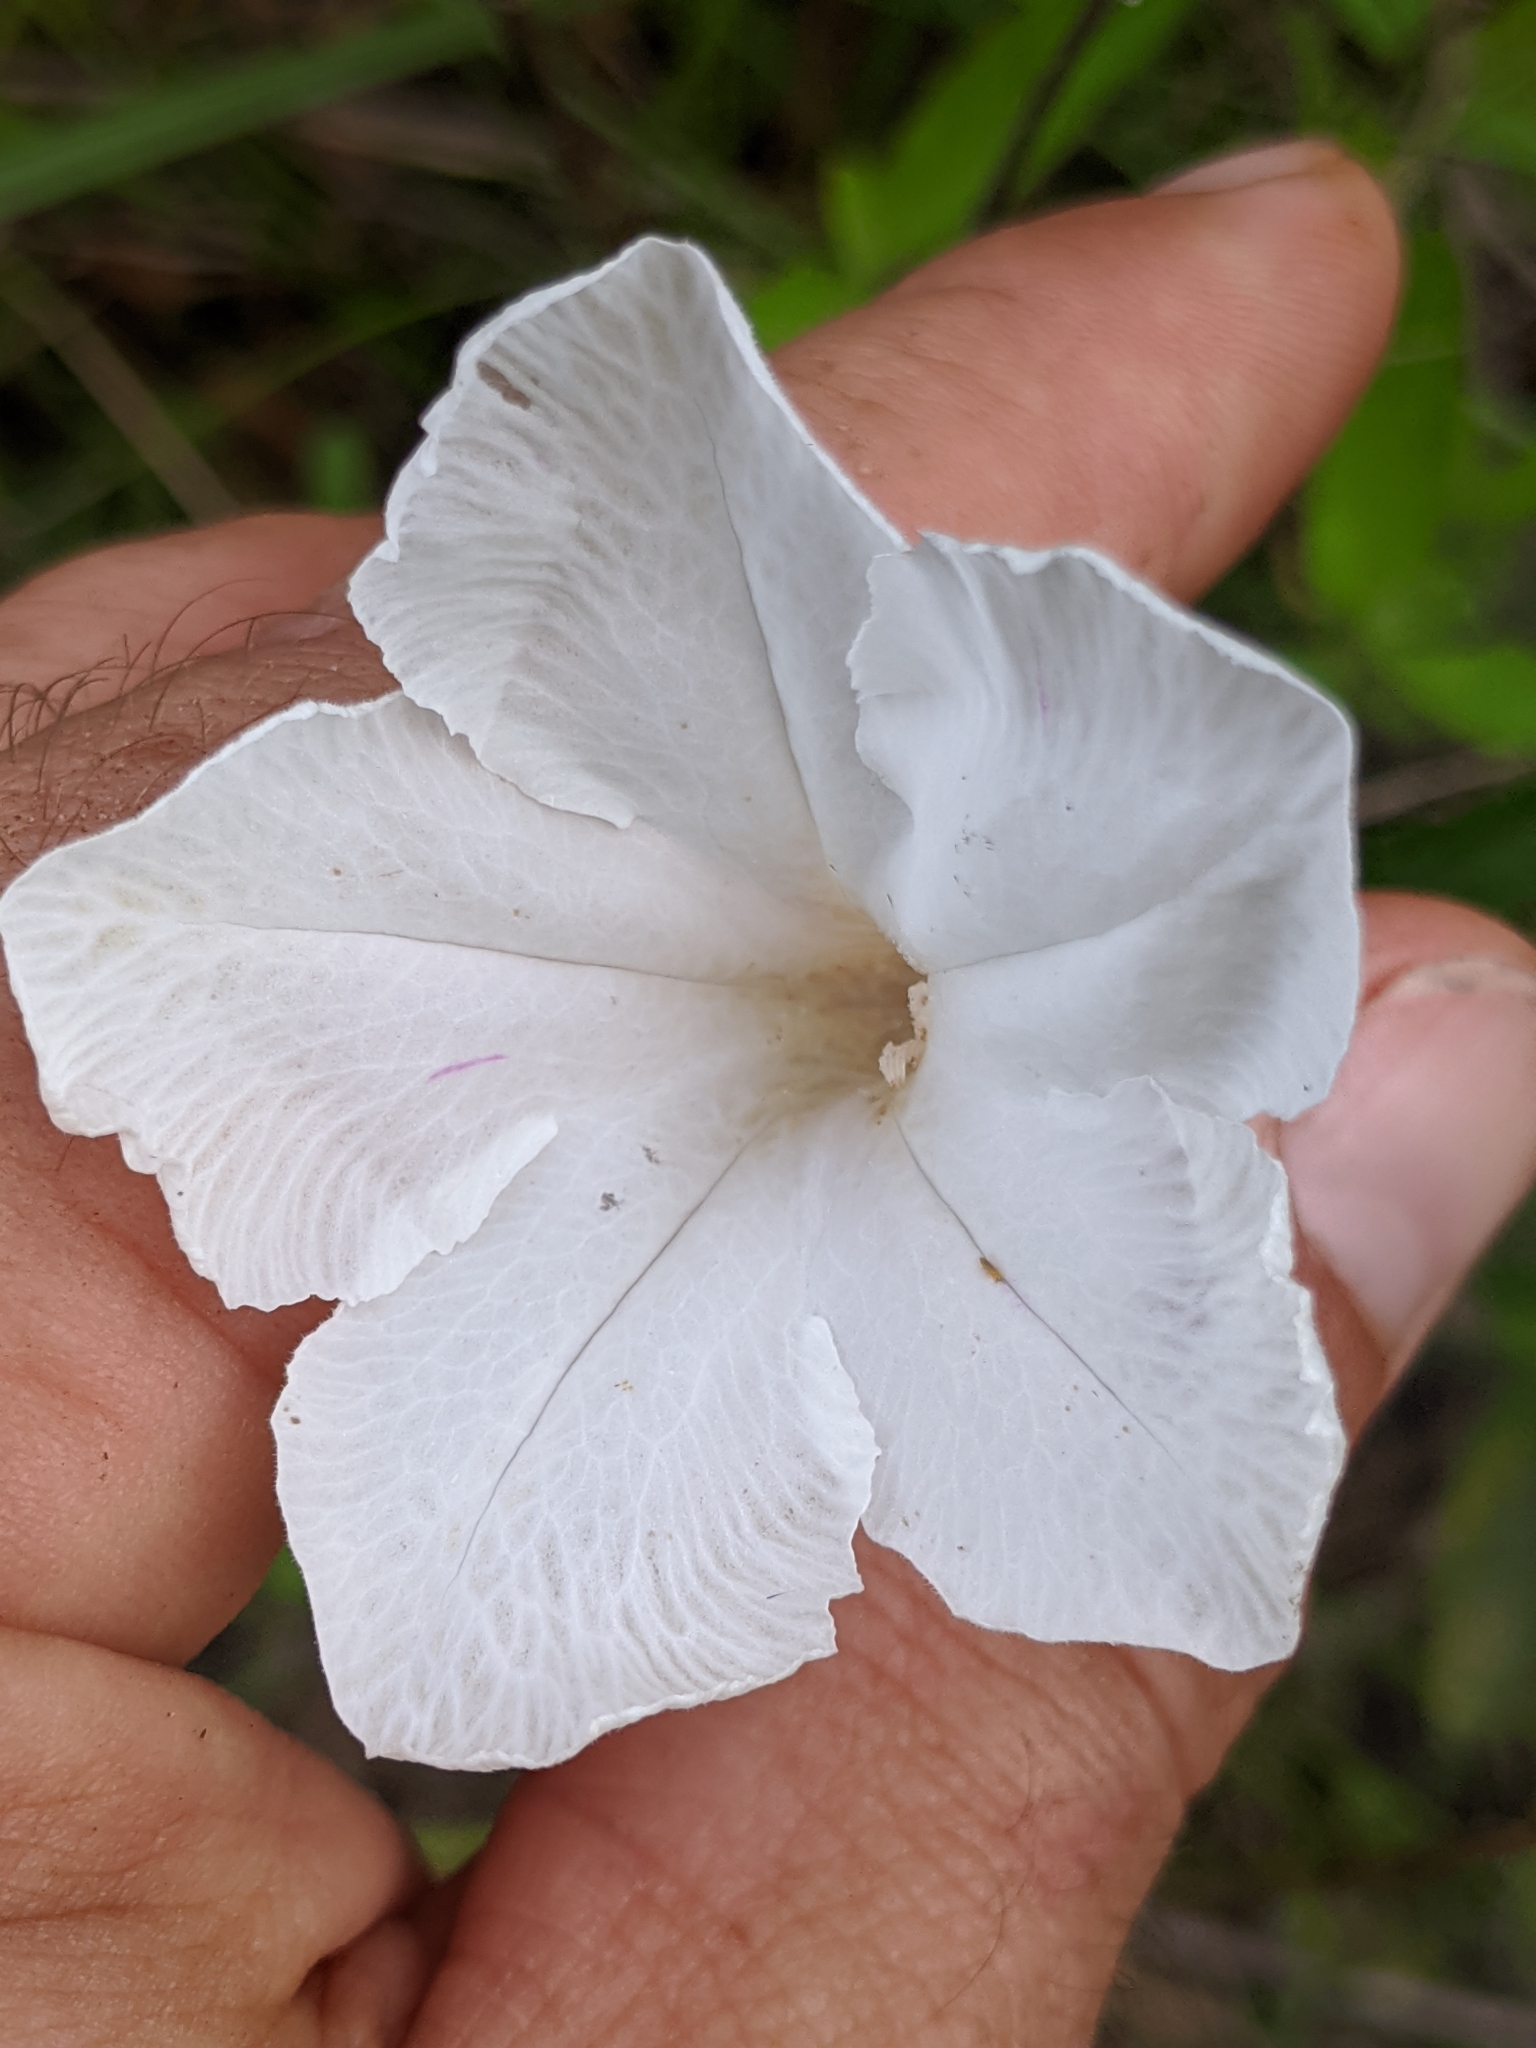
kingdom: Plantae
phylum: Tracheophyta
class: Magnoliopsida
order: Lamiales
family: Acanthaceae
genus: Ruellia
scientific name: Ruellia noctiflora
